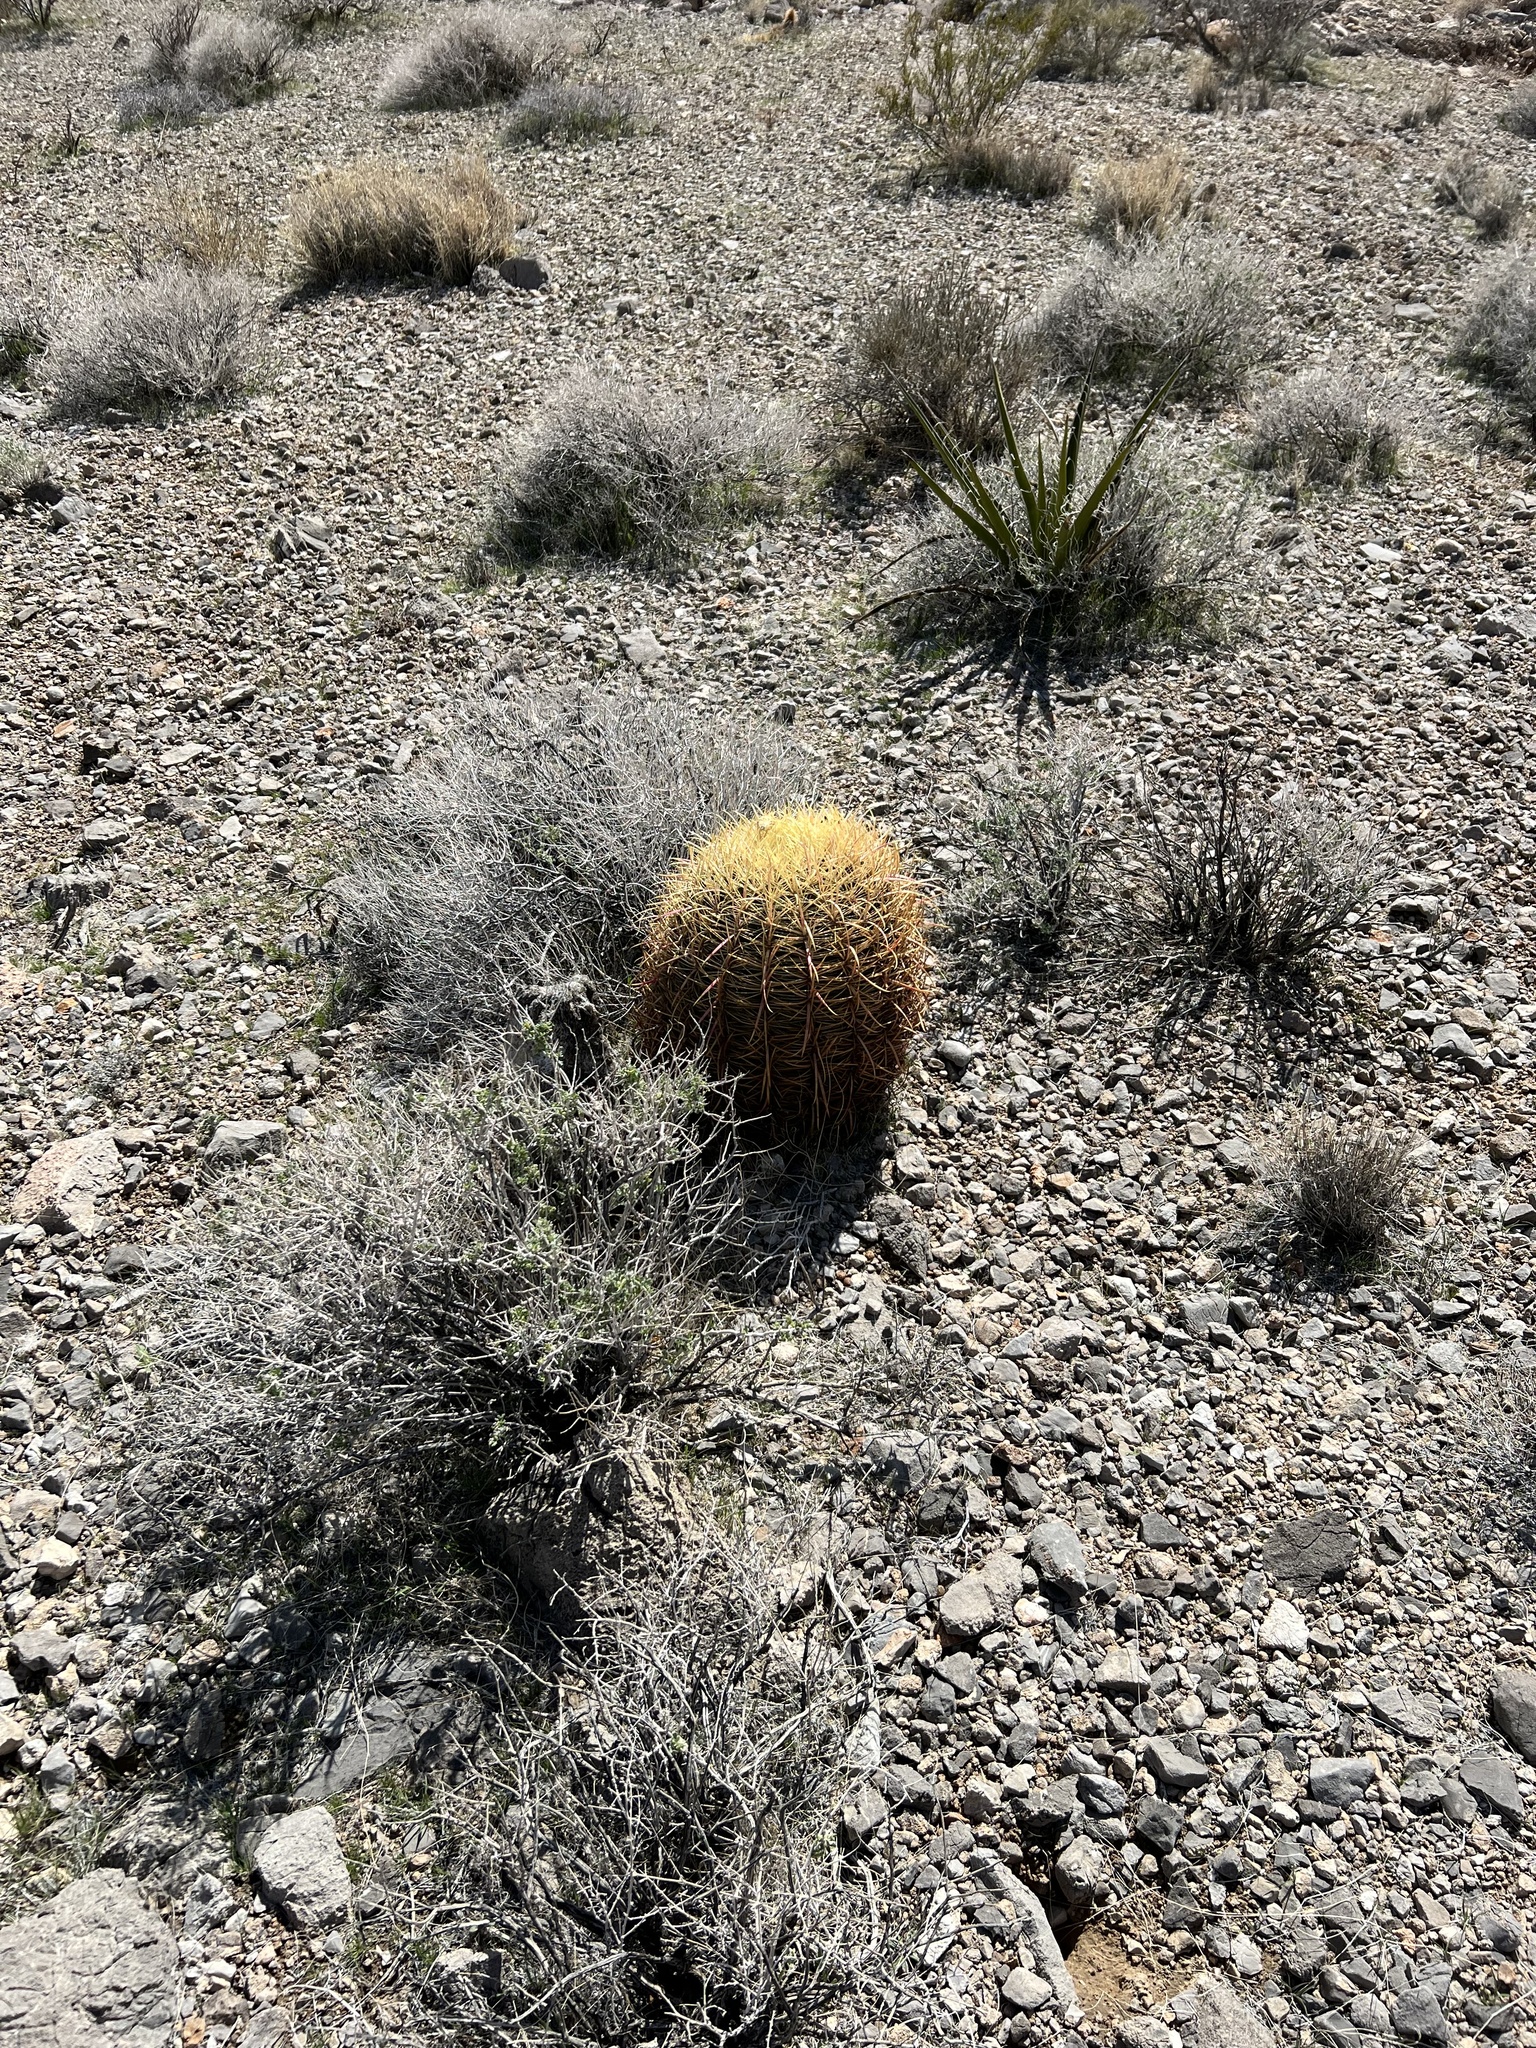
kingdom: Plantae
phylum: Tracheophyta
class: Magnoliopsida
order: Caryophyllales
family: Cactaceae
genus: Ferocactus
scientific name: Ferocactus cylindraceus
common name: California barrel cactus
